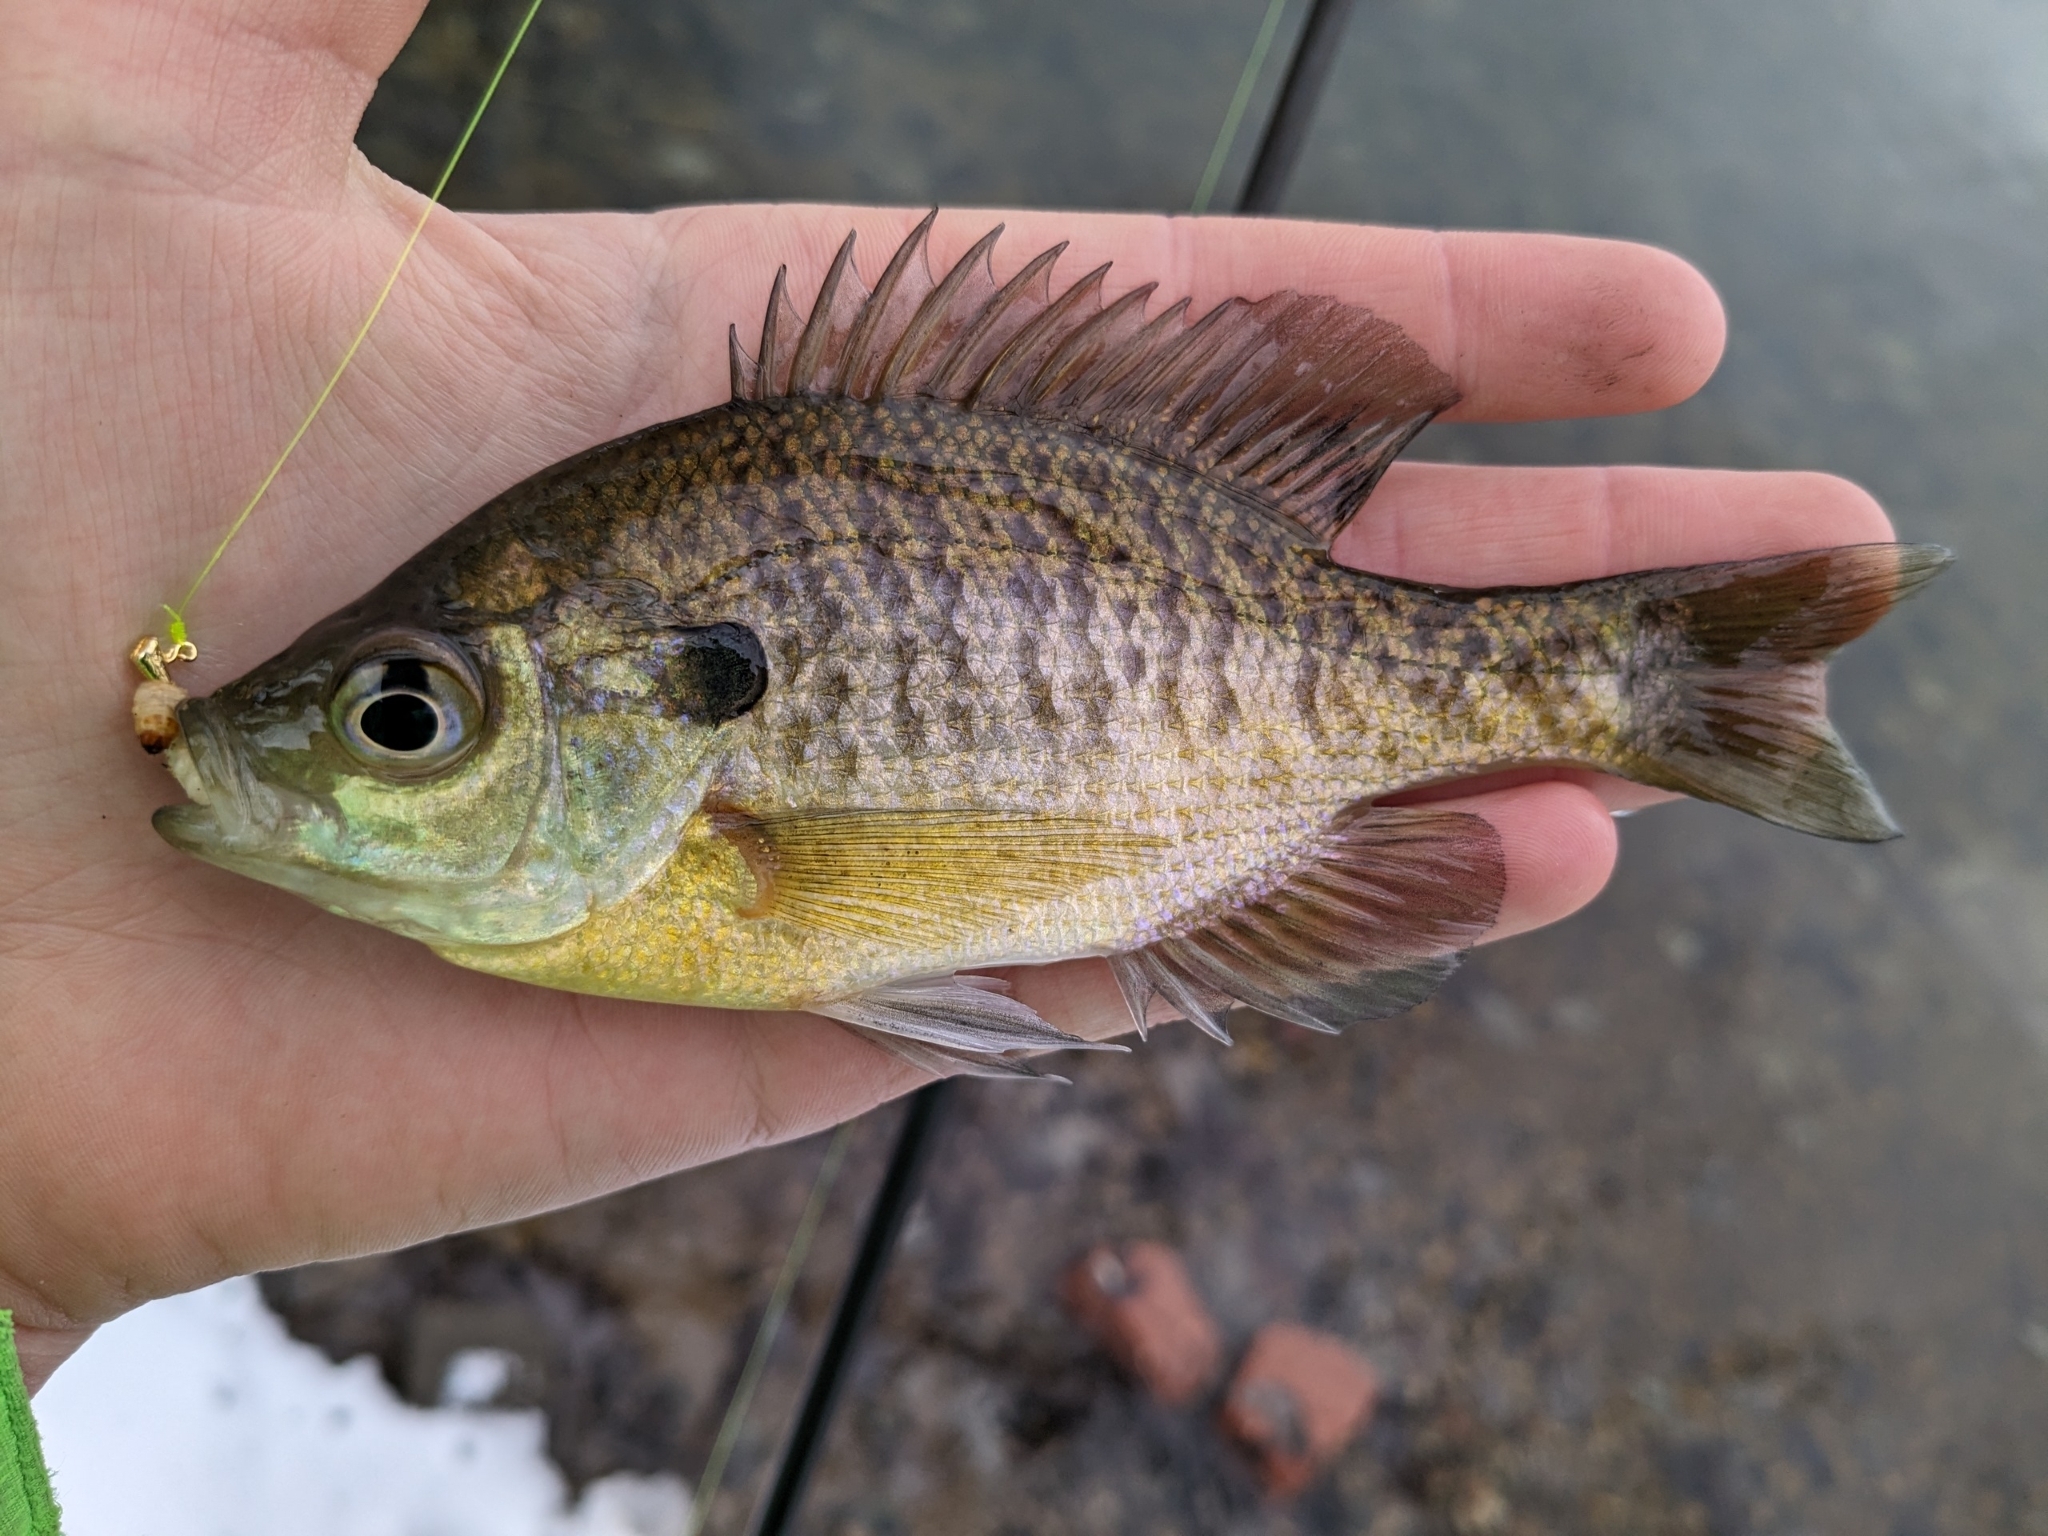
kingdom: Animalia
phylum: Chordata
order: Perciformes
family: Centrarchidae
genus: Lepomis
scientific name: Lepomis macrochirus
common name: Bluegill
